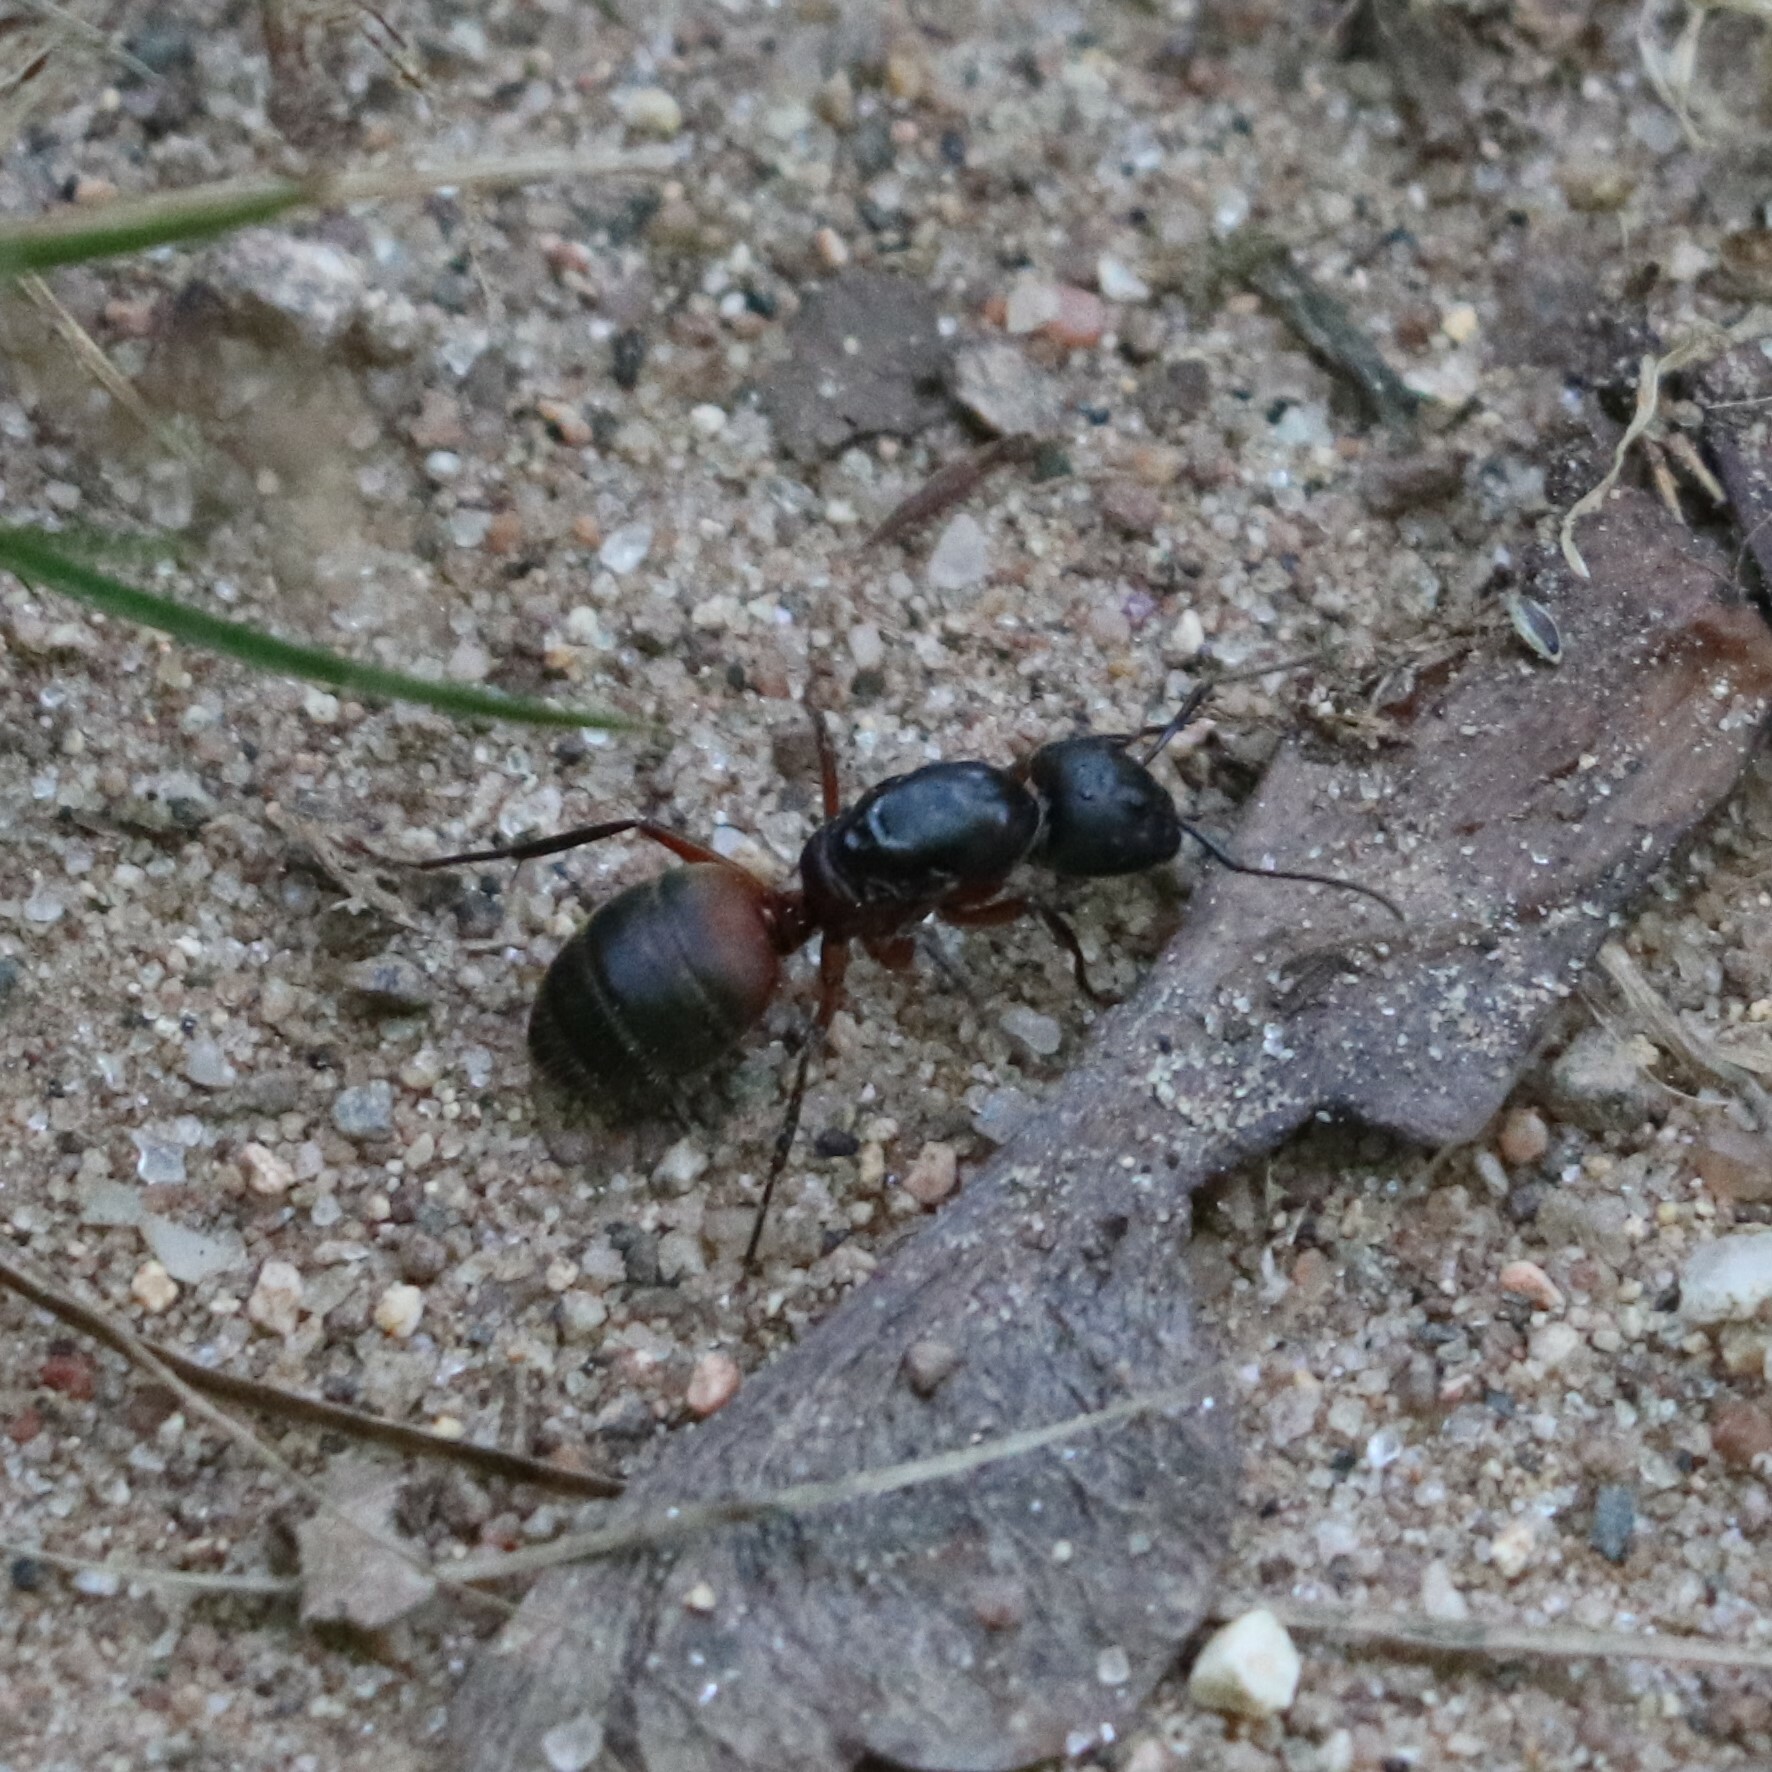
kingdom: Animalia
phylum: Arthropoda
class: Insecta
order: Hymenoptera
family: Formicidae
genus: Camponotus
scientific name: Camponotus chromaiodes
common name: Red carpenter ant
